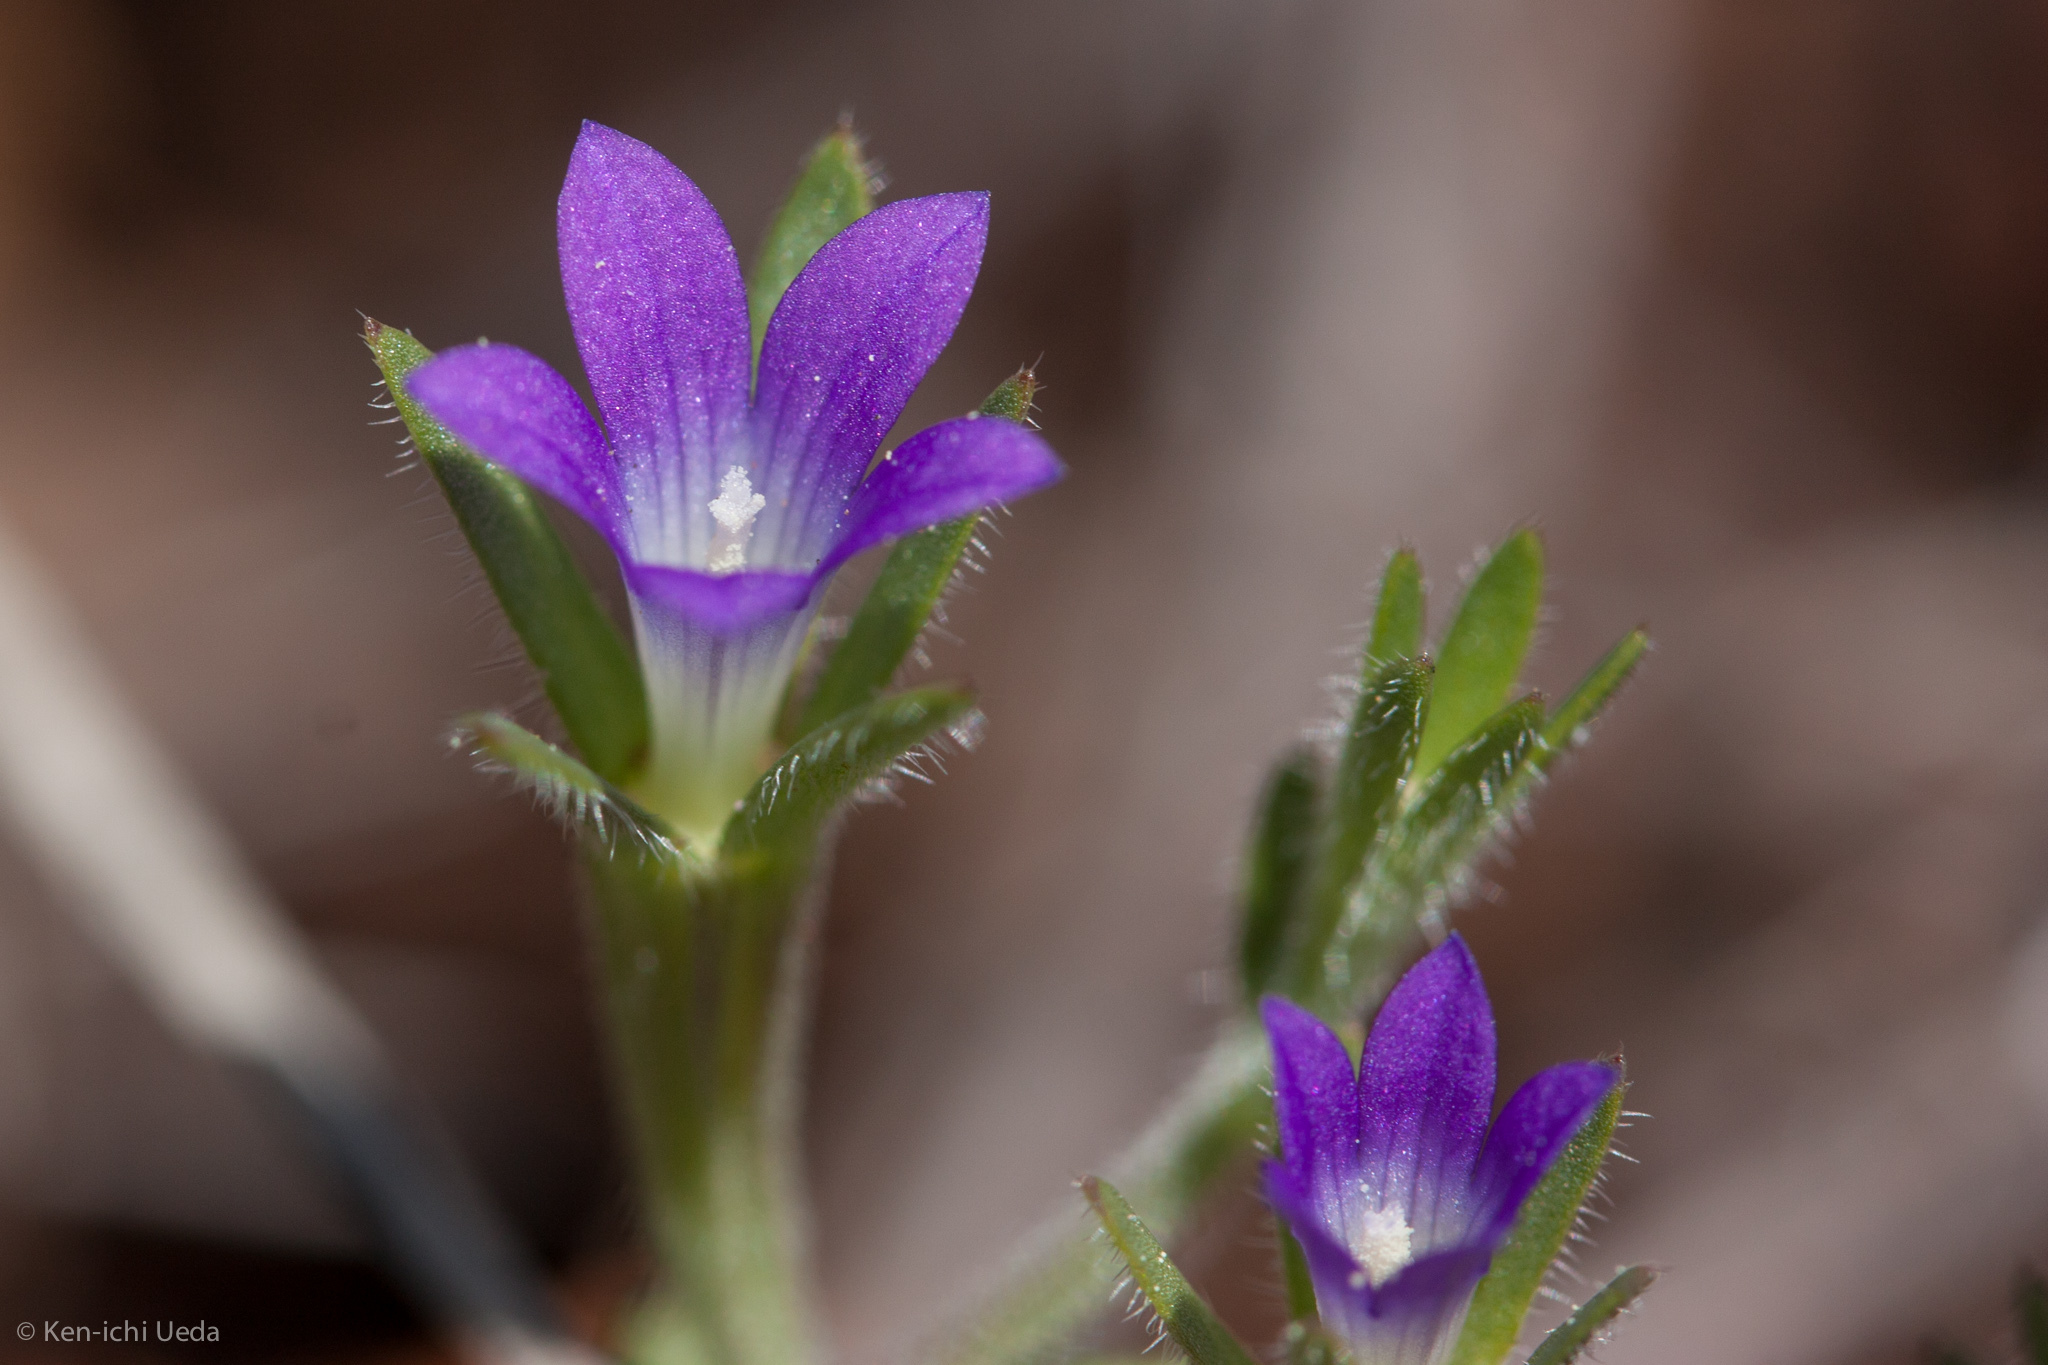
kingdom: Plantae
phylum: Tracheophyta
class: Magnoliopsida
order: Asterales
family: Campanulaceae
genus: Githopsis
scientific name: Githopsis specularioides
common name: Common bluecup
